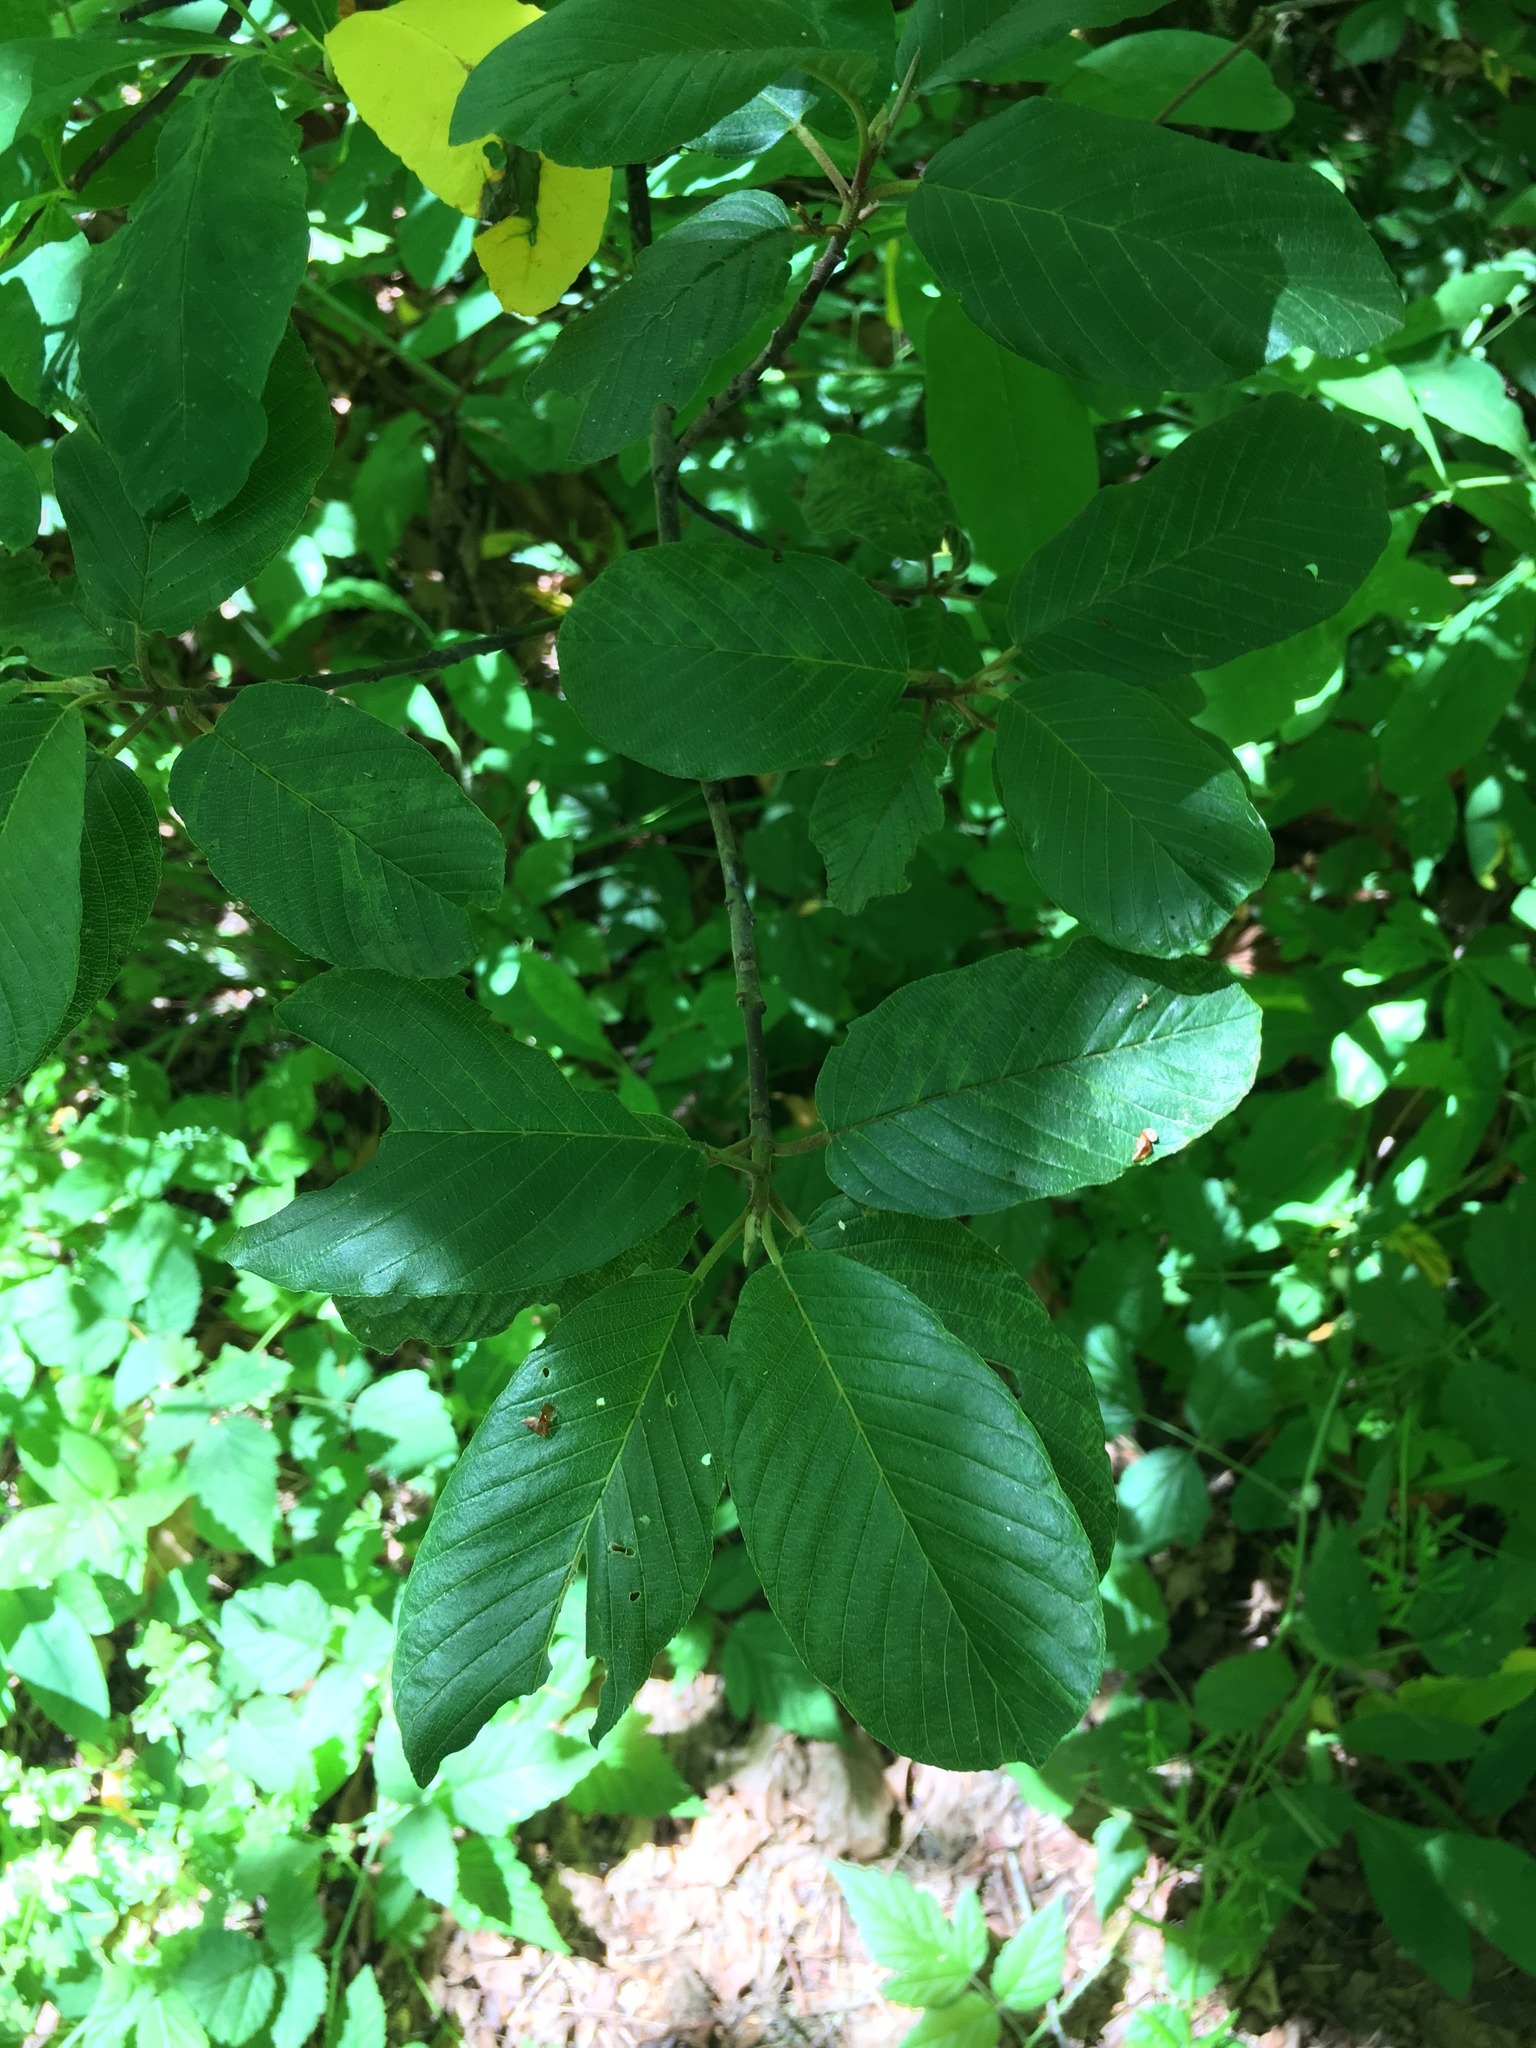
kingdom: Plantae
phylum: Tracheophyta
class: Magnoliopsida
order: Rosales
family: Rhamnaceae
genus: Frangula
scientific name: Frangula purshiana
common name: Cascara buckthorn
